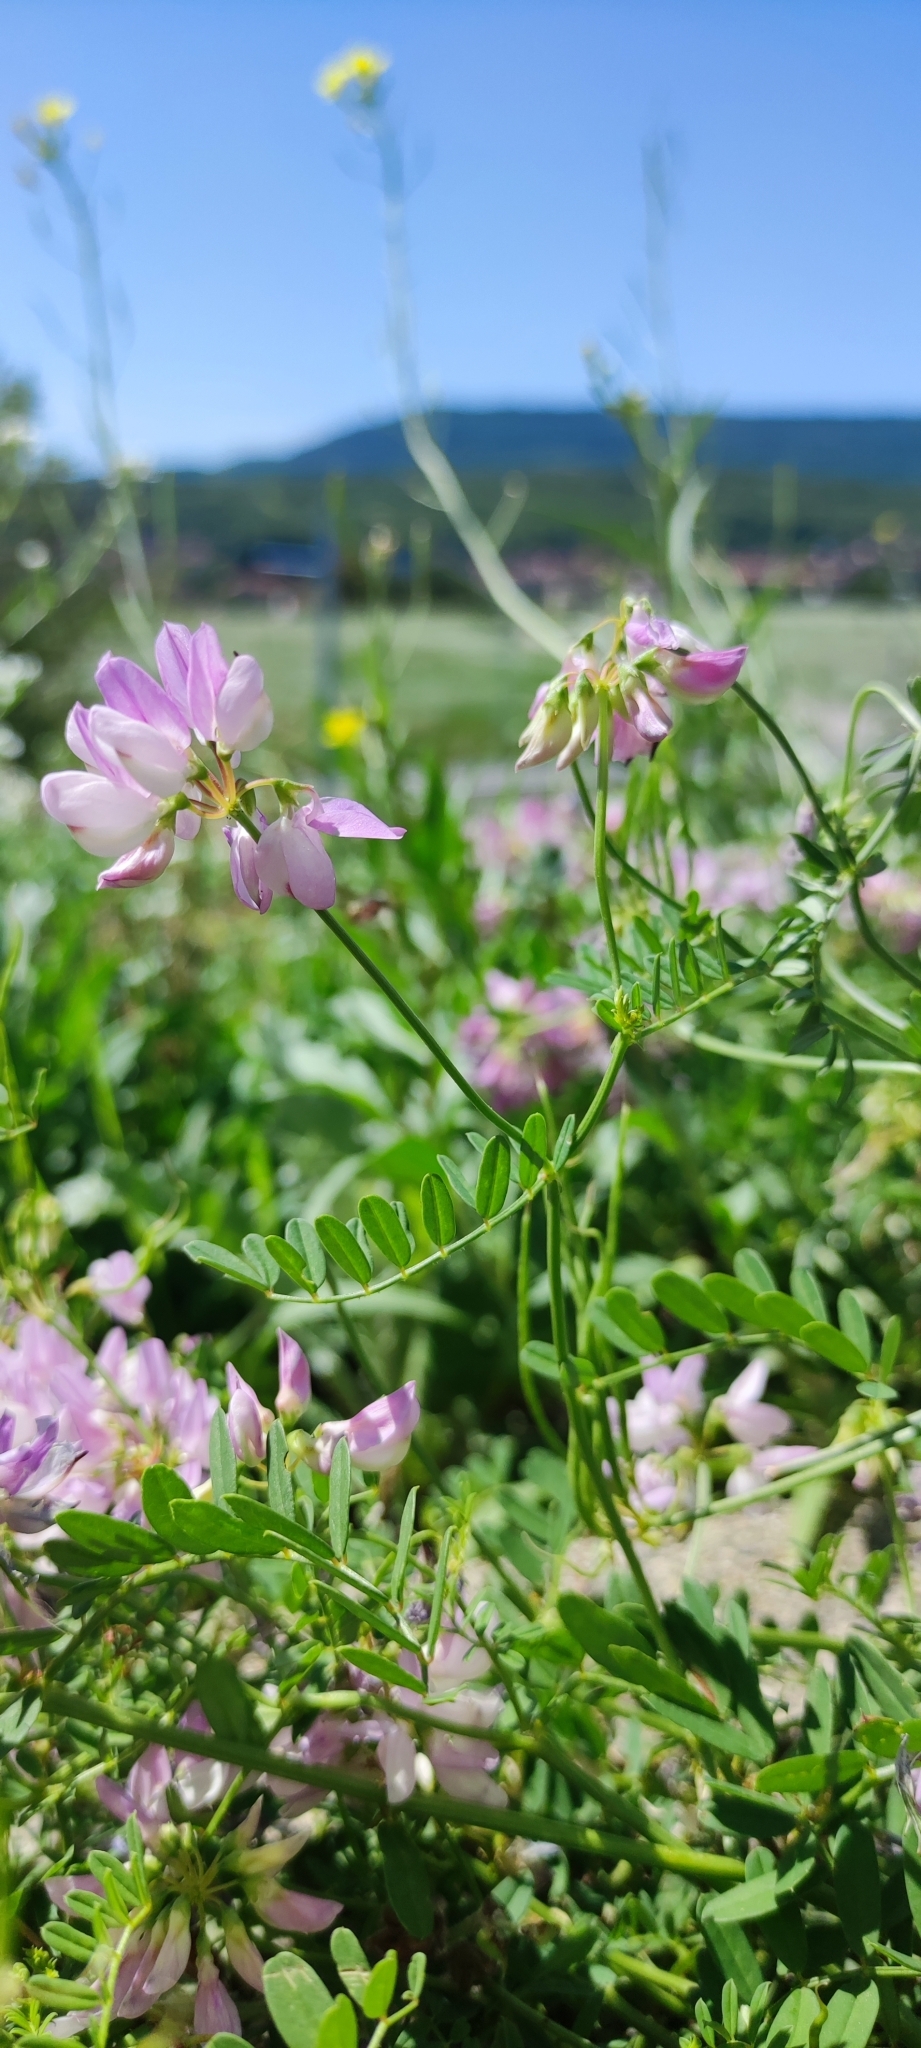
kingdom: Plantae
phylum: Tracheophyta
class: Magnoliopsida
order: Fabales
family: Fabaceae
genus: Coronilla
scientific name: Coronilla varia
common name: Crownvetch
